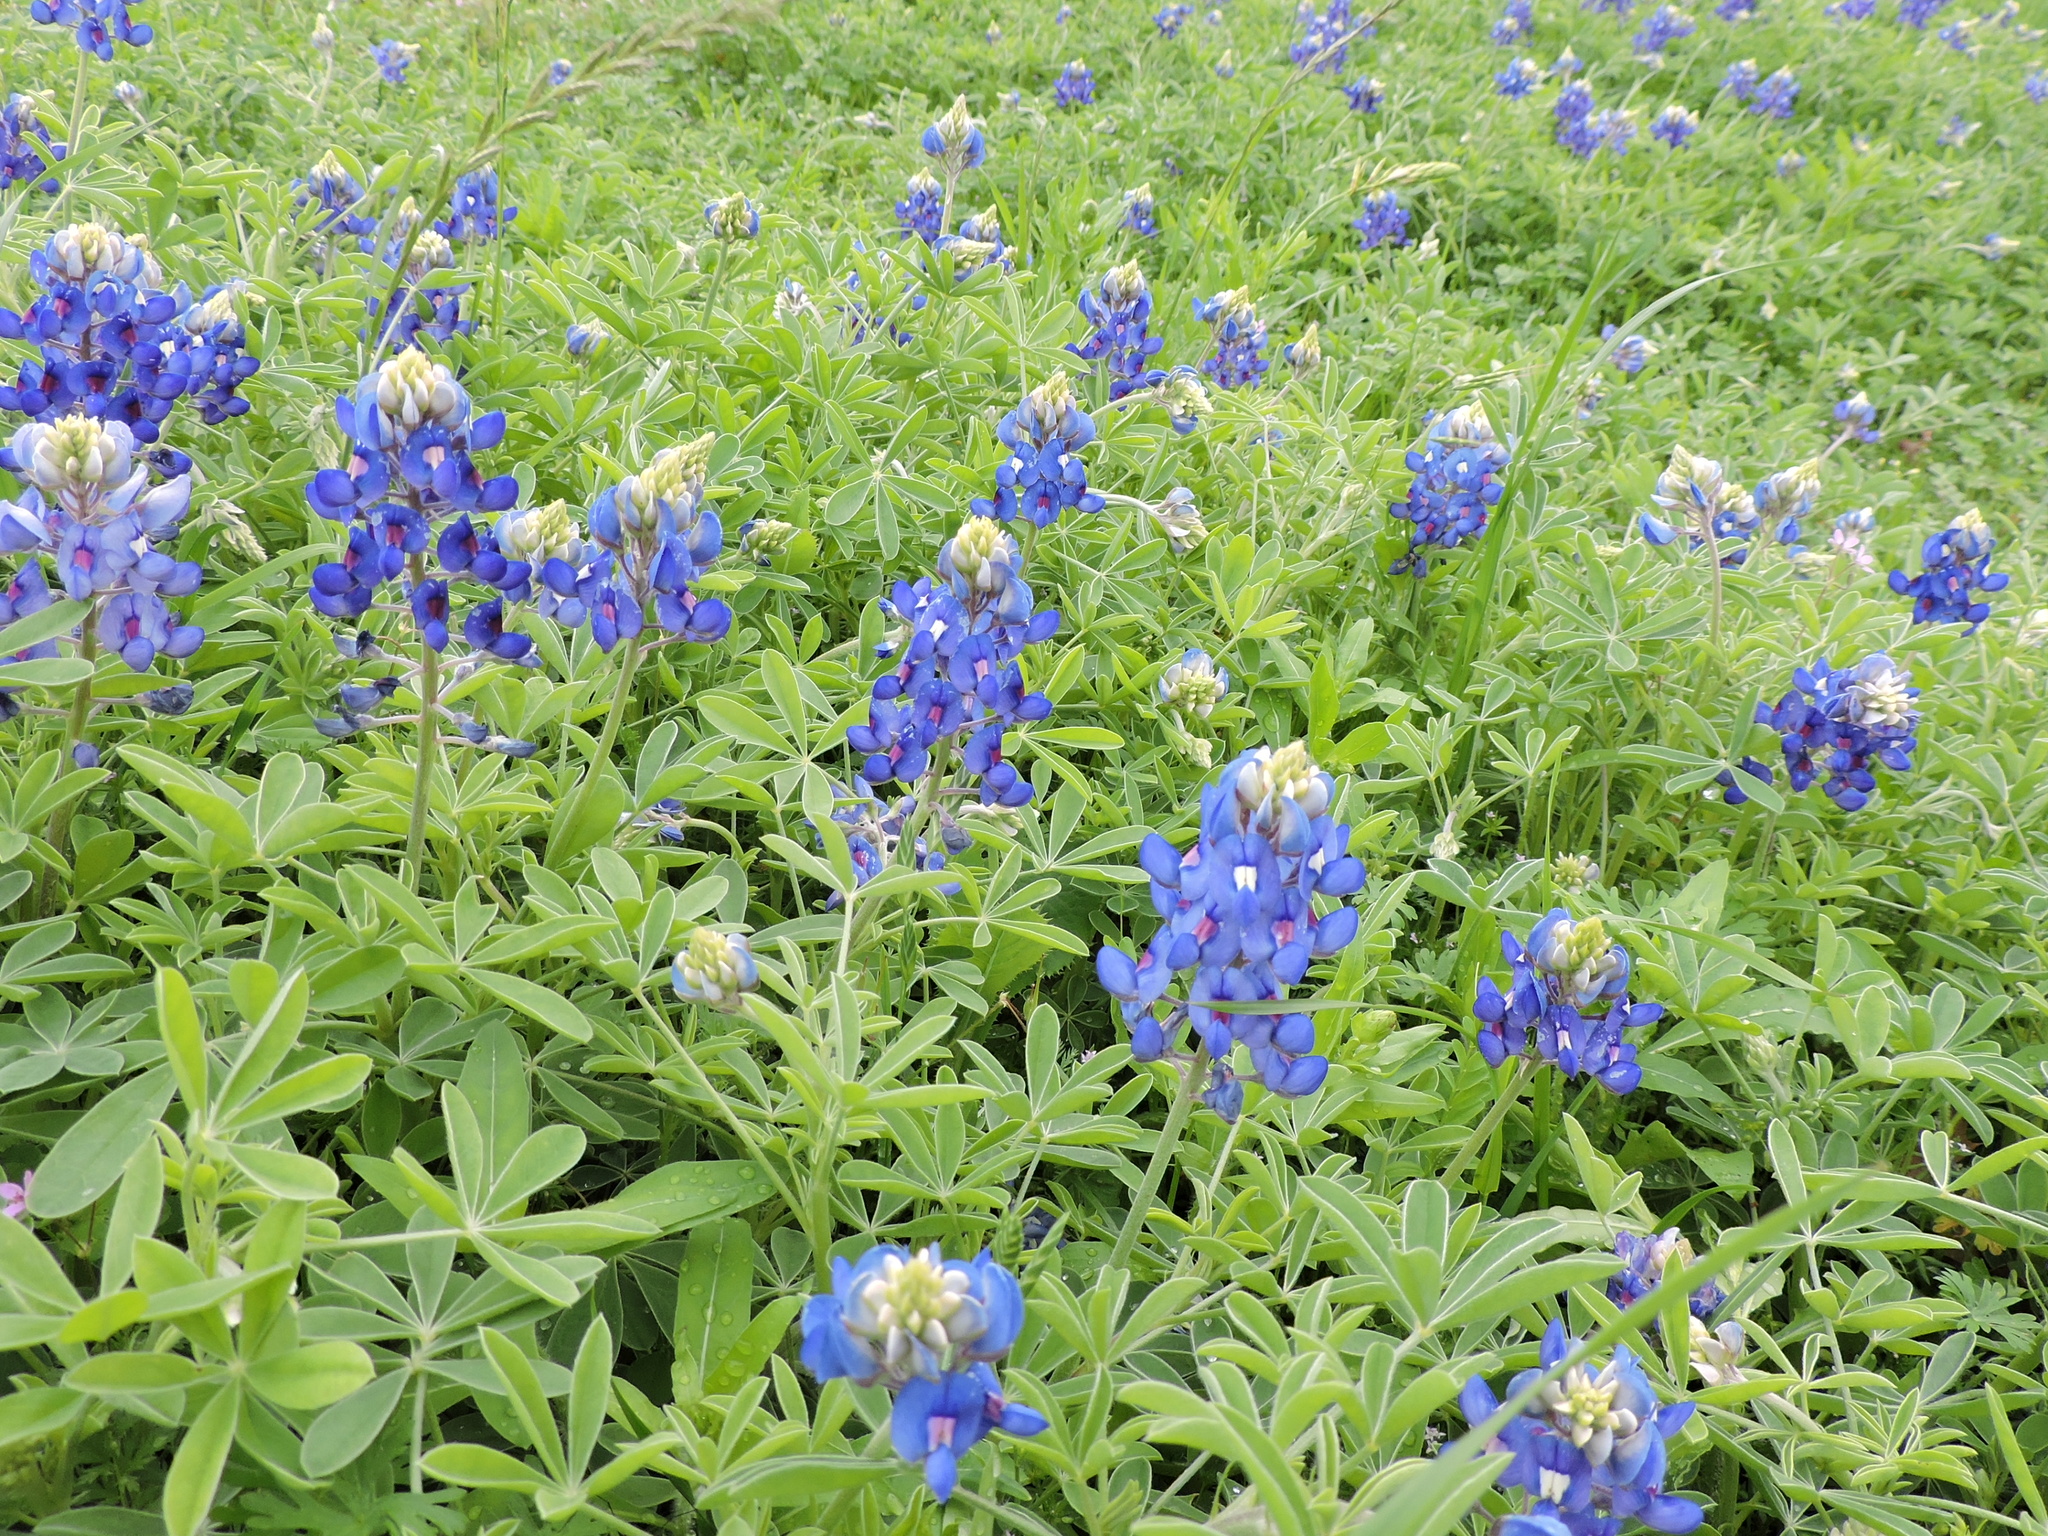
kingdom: Plantae
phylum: Tracheophyta
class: Magnoliopsida
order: Fabales
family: Fabaceae
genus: Lupinus
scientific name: Lupinus texensis
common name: Texas bluebonnet
